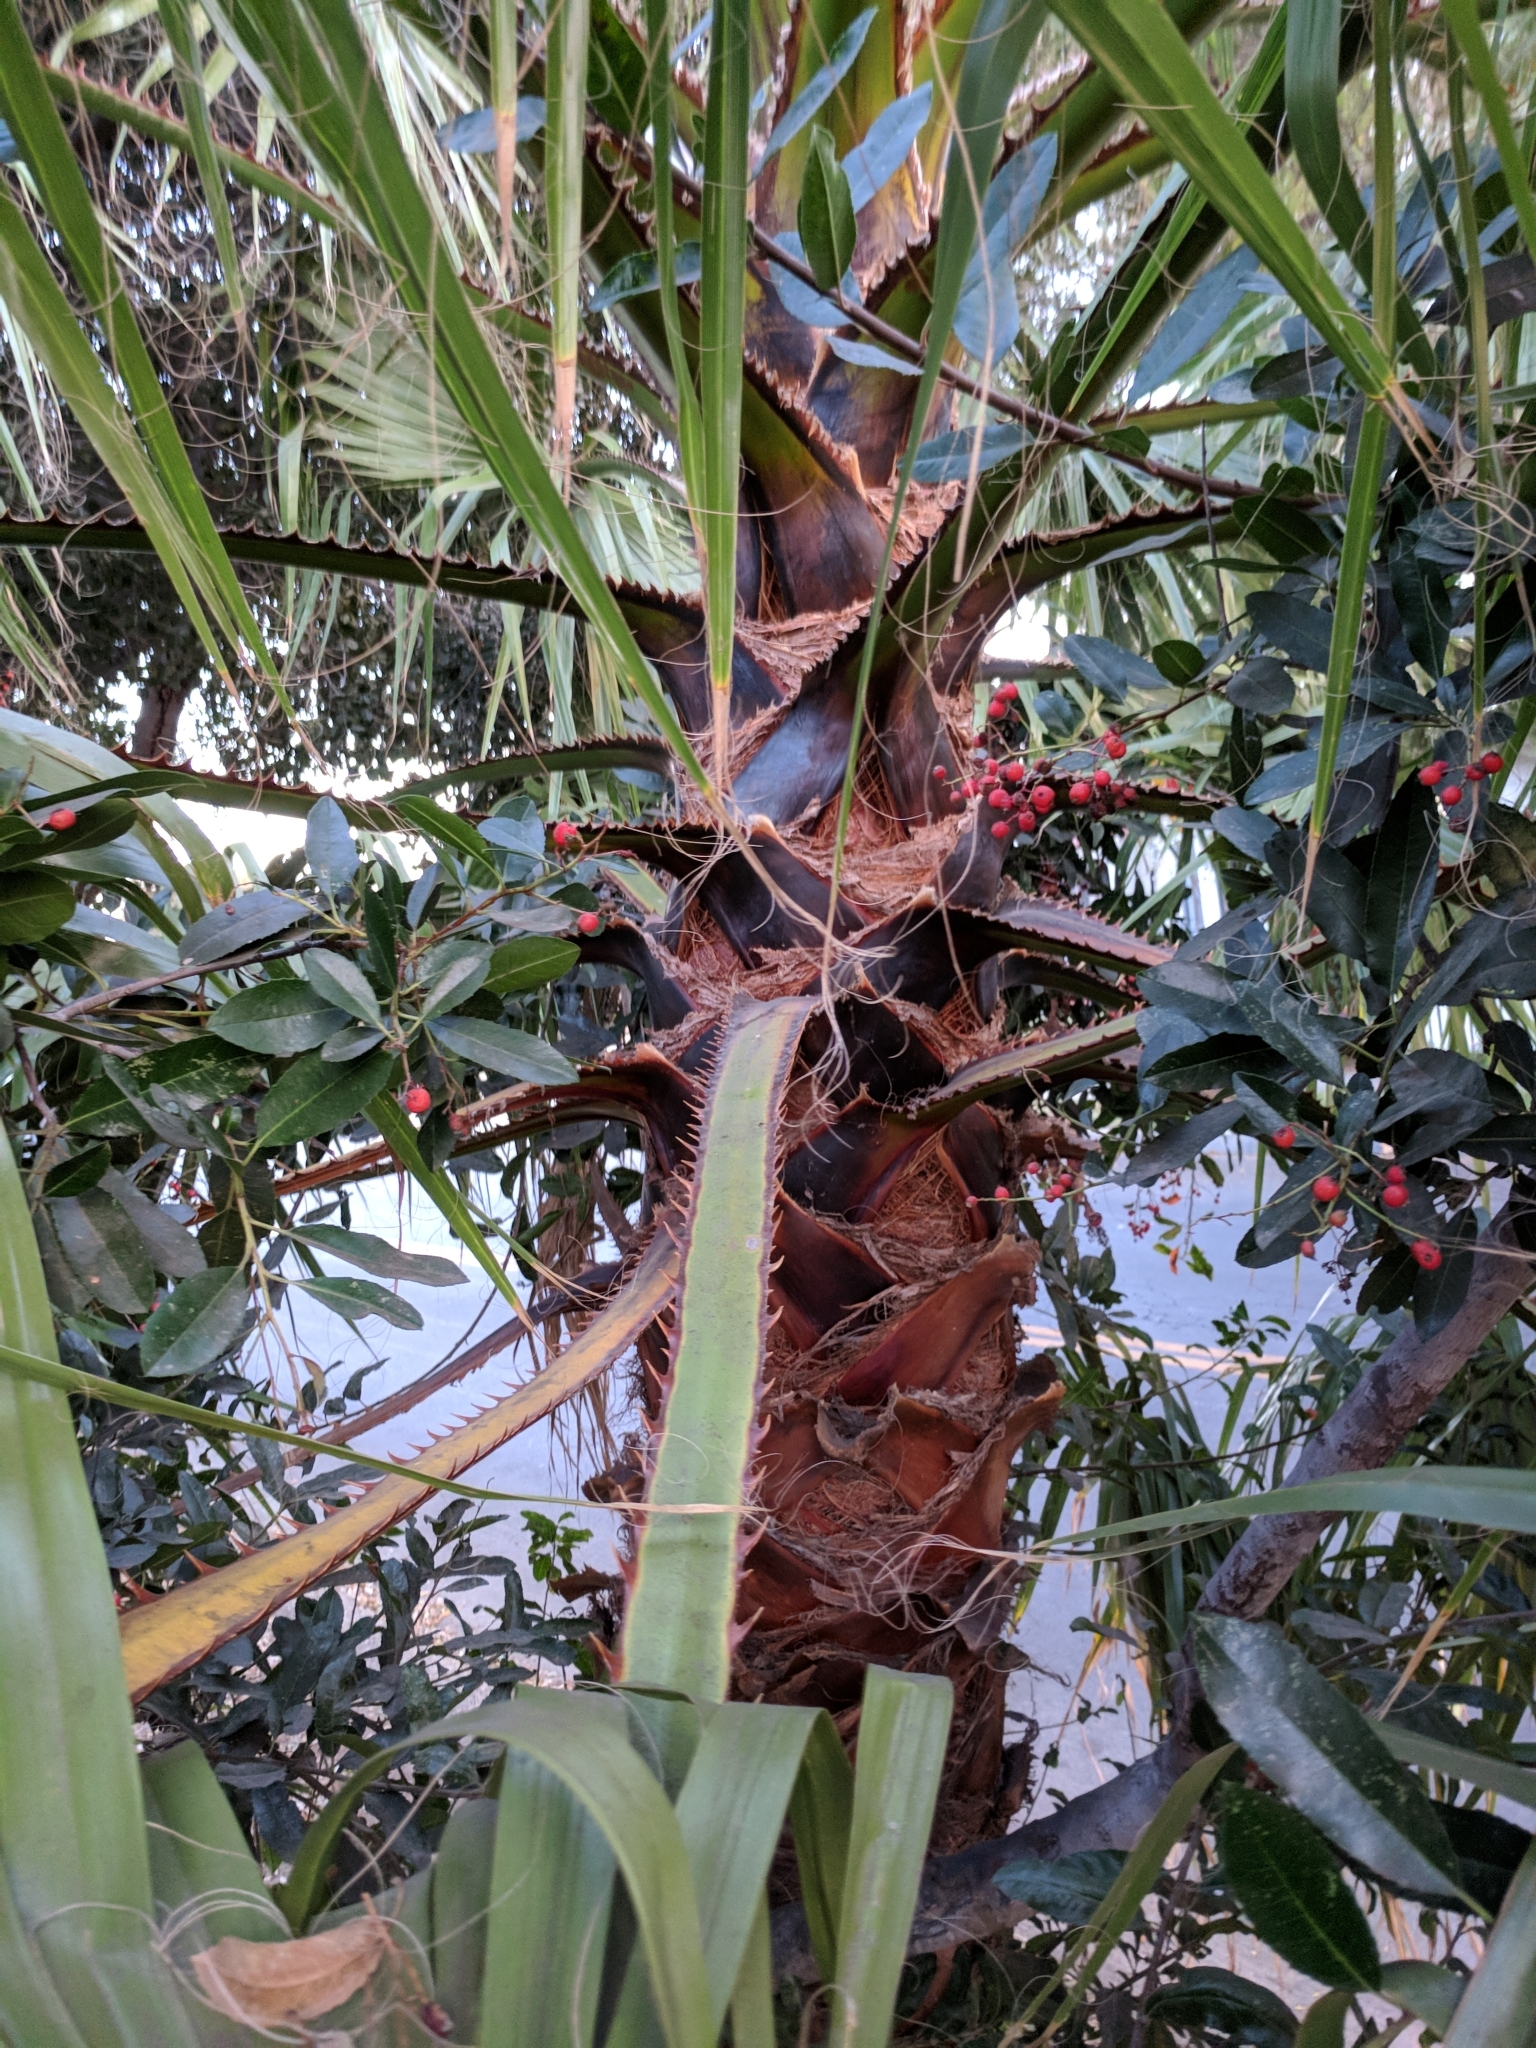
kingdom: Plantae
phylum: Tracheophyta
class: Liliopsida
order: Arecales
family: Arecaceae
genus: Washingtonia
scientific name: Washingtonia robusta
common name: Mexican fan palm
